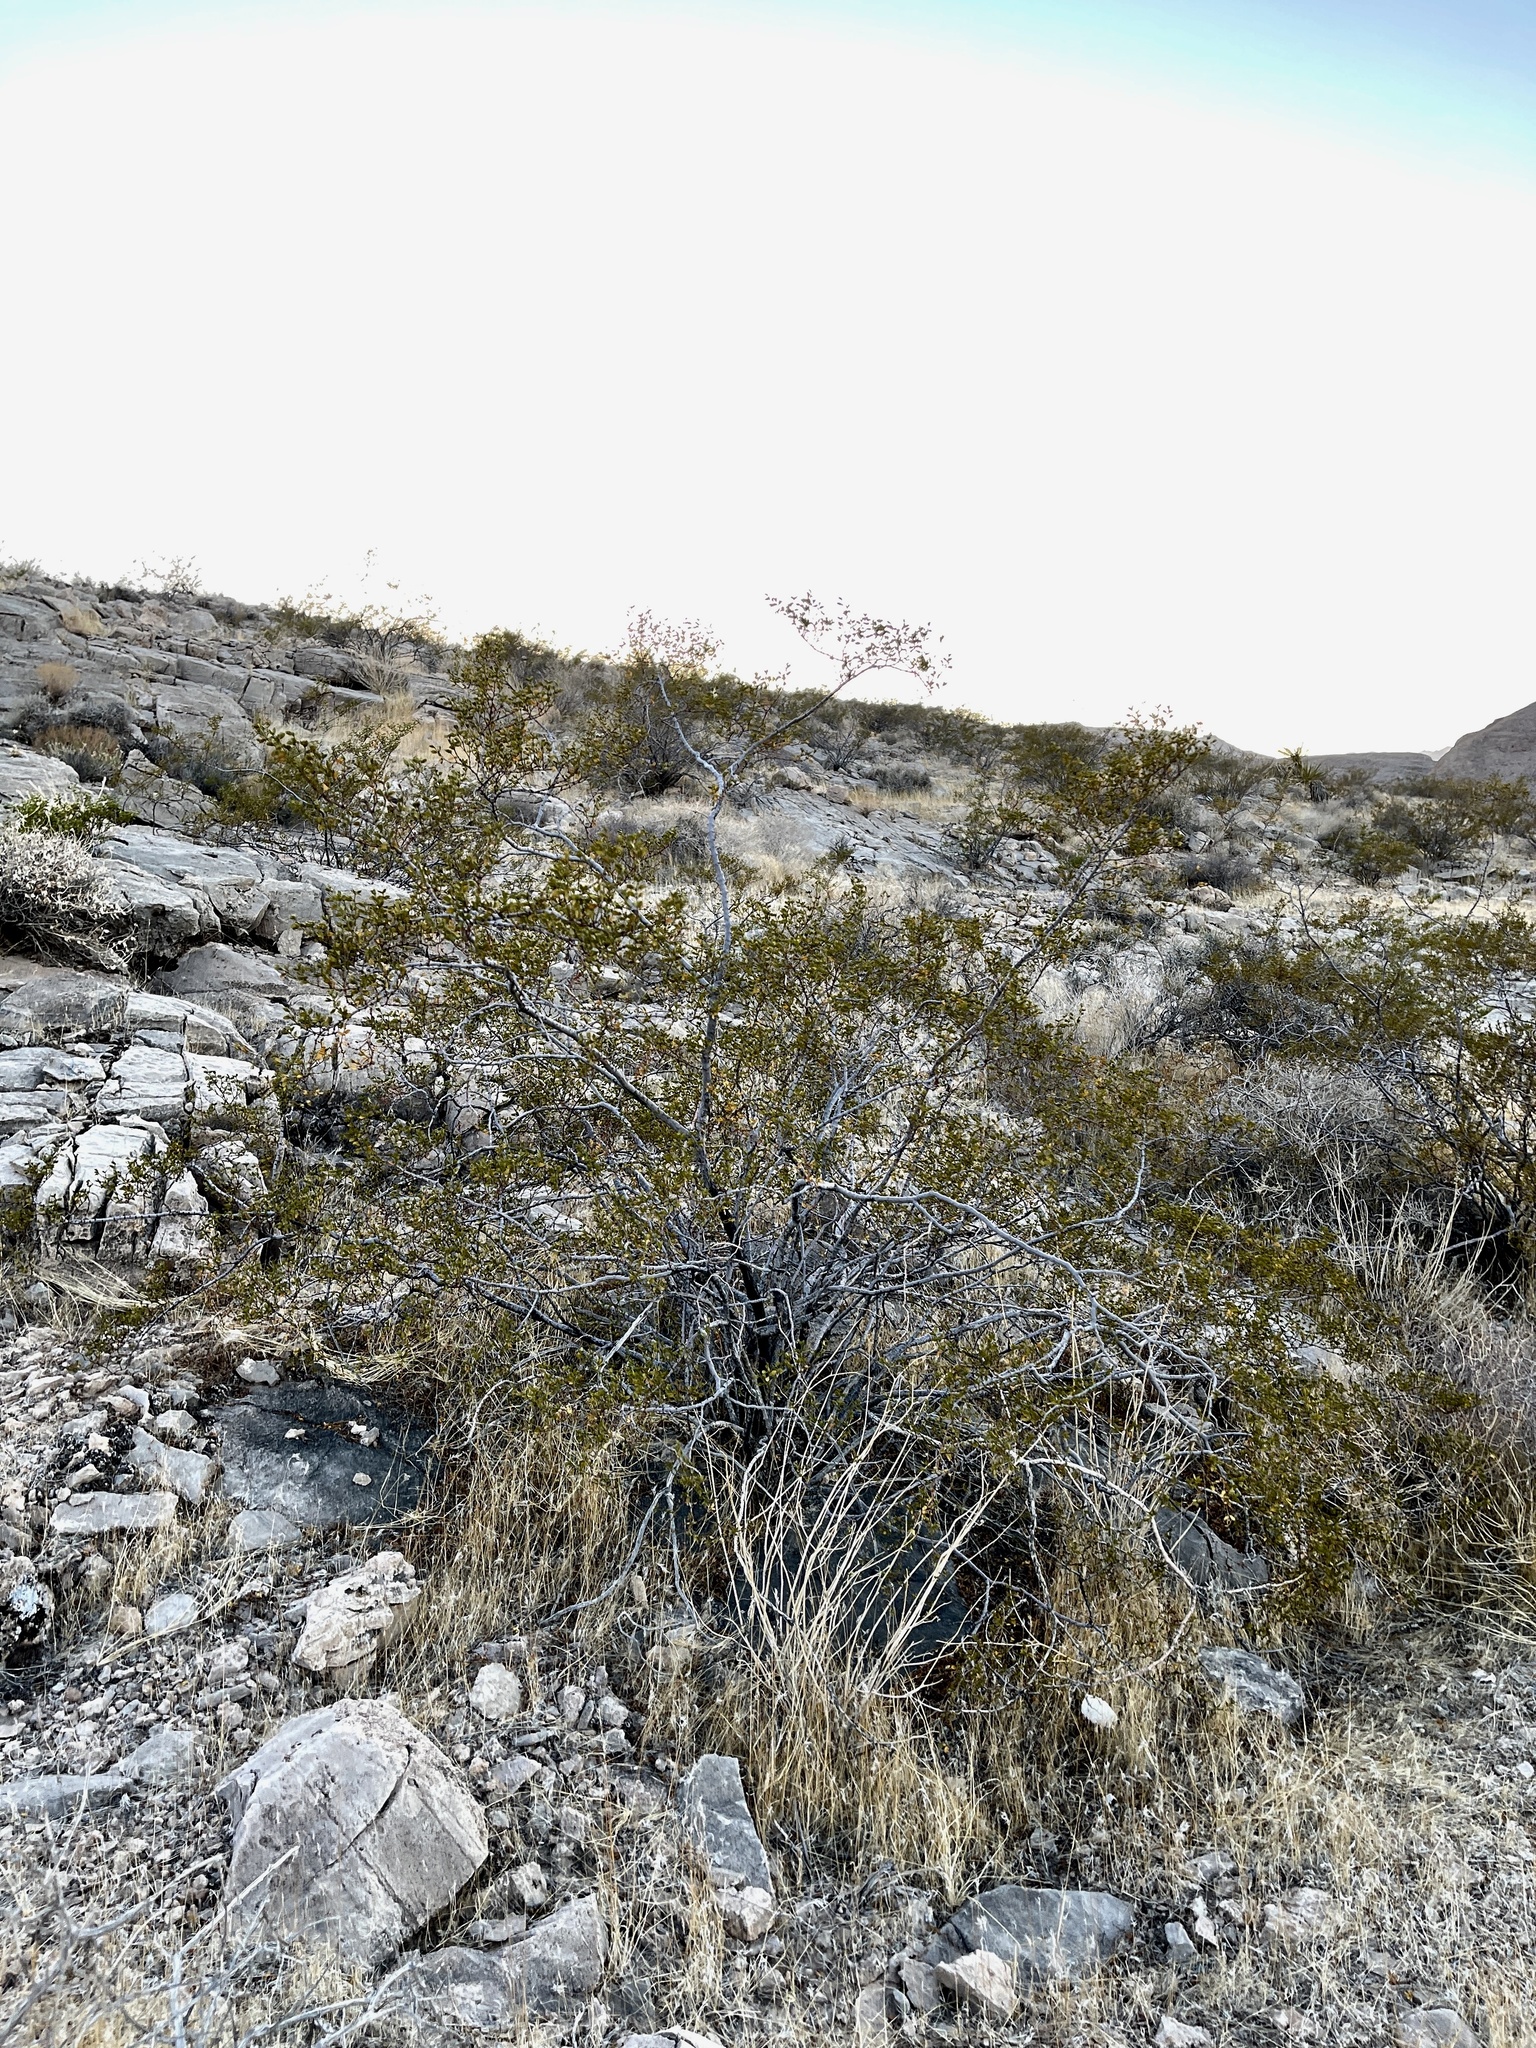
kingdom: Plantae
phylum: Tracheophyta
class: Magnoliopsida
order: Zygophyllales
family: Zygophyllaceae
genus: Larrea
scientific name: Larrea tridentata
